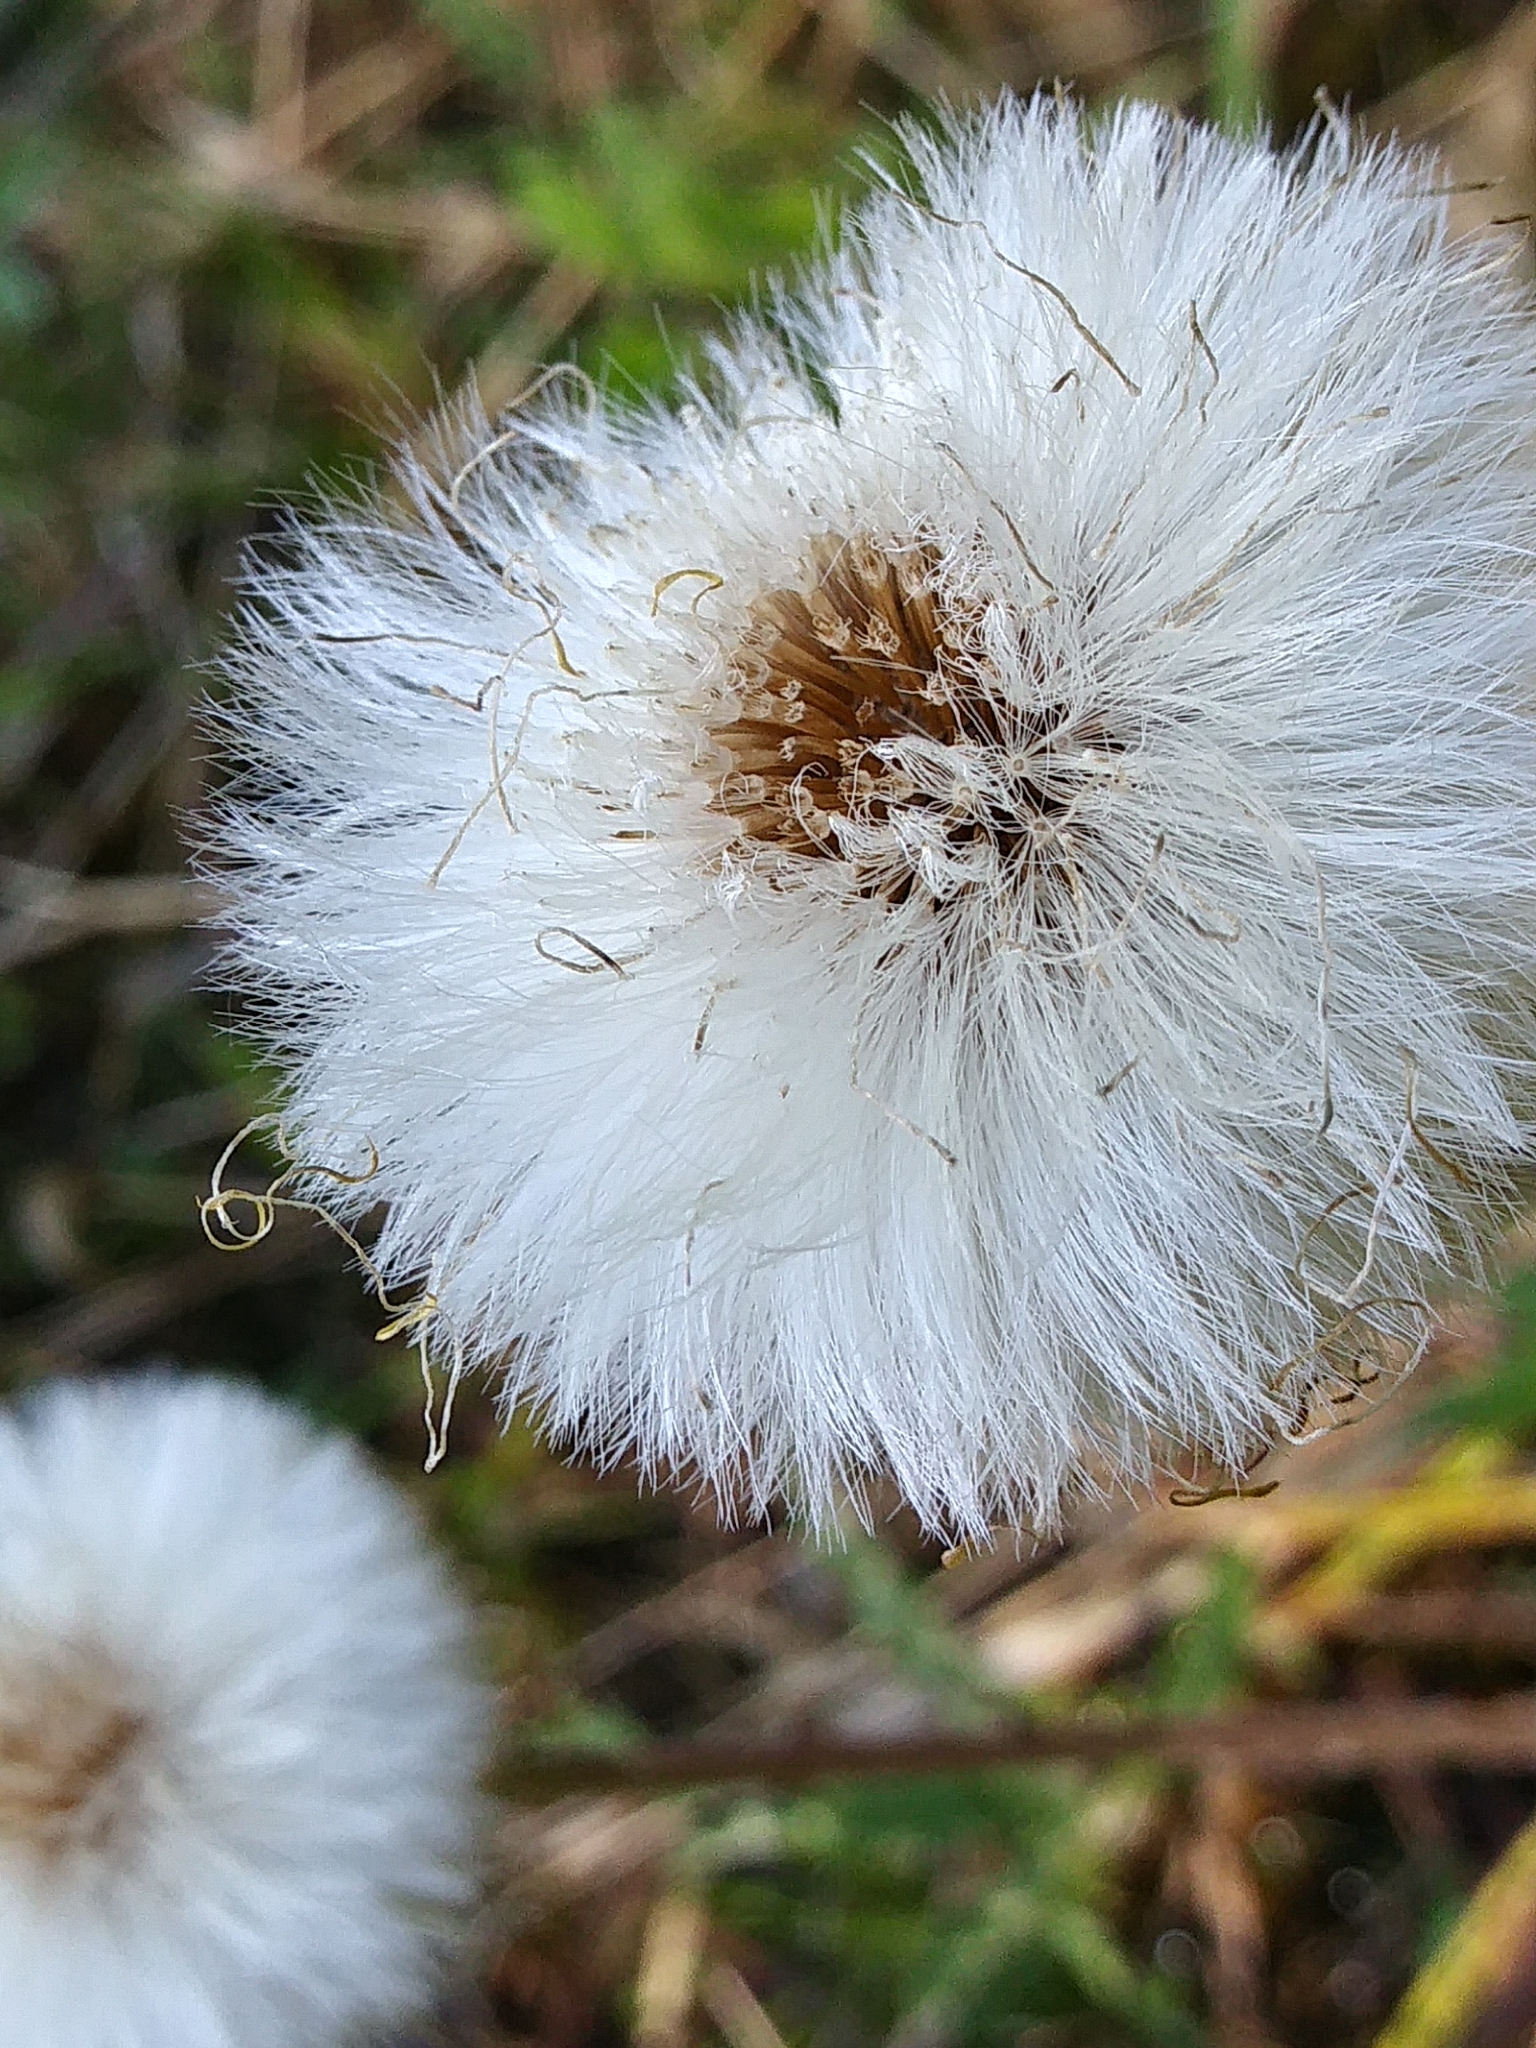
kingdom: Plantae
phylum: Tracheophyta
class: Magnoliopsida
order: Asterales
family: Asteraceae
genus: Tussilago
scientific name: Tussilago farfara
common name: Coltsfoot
